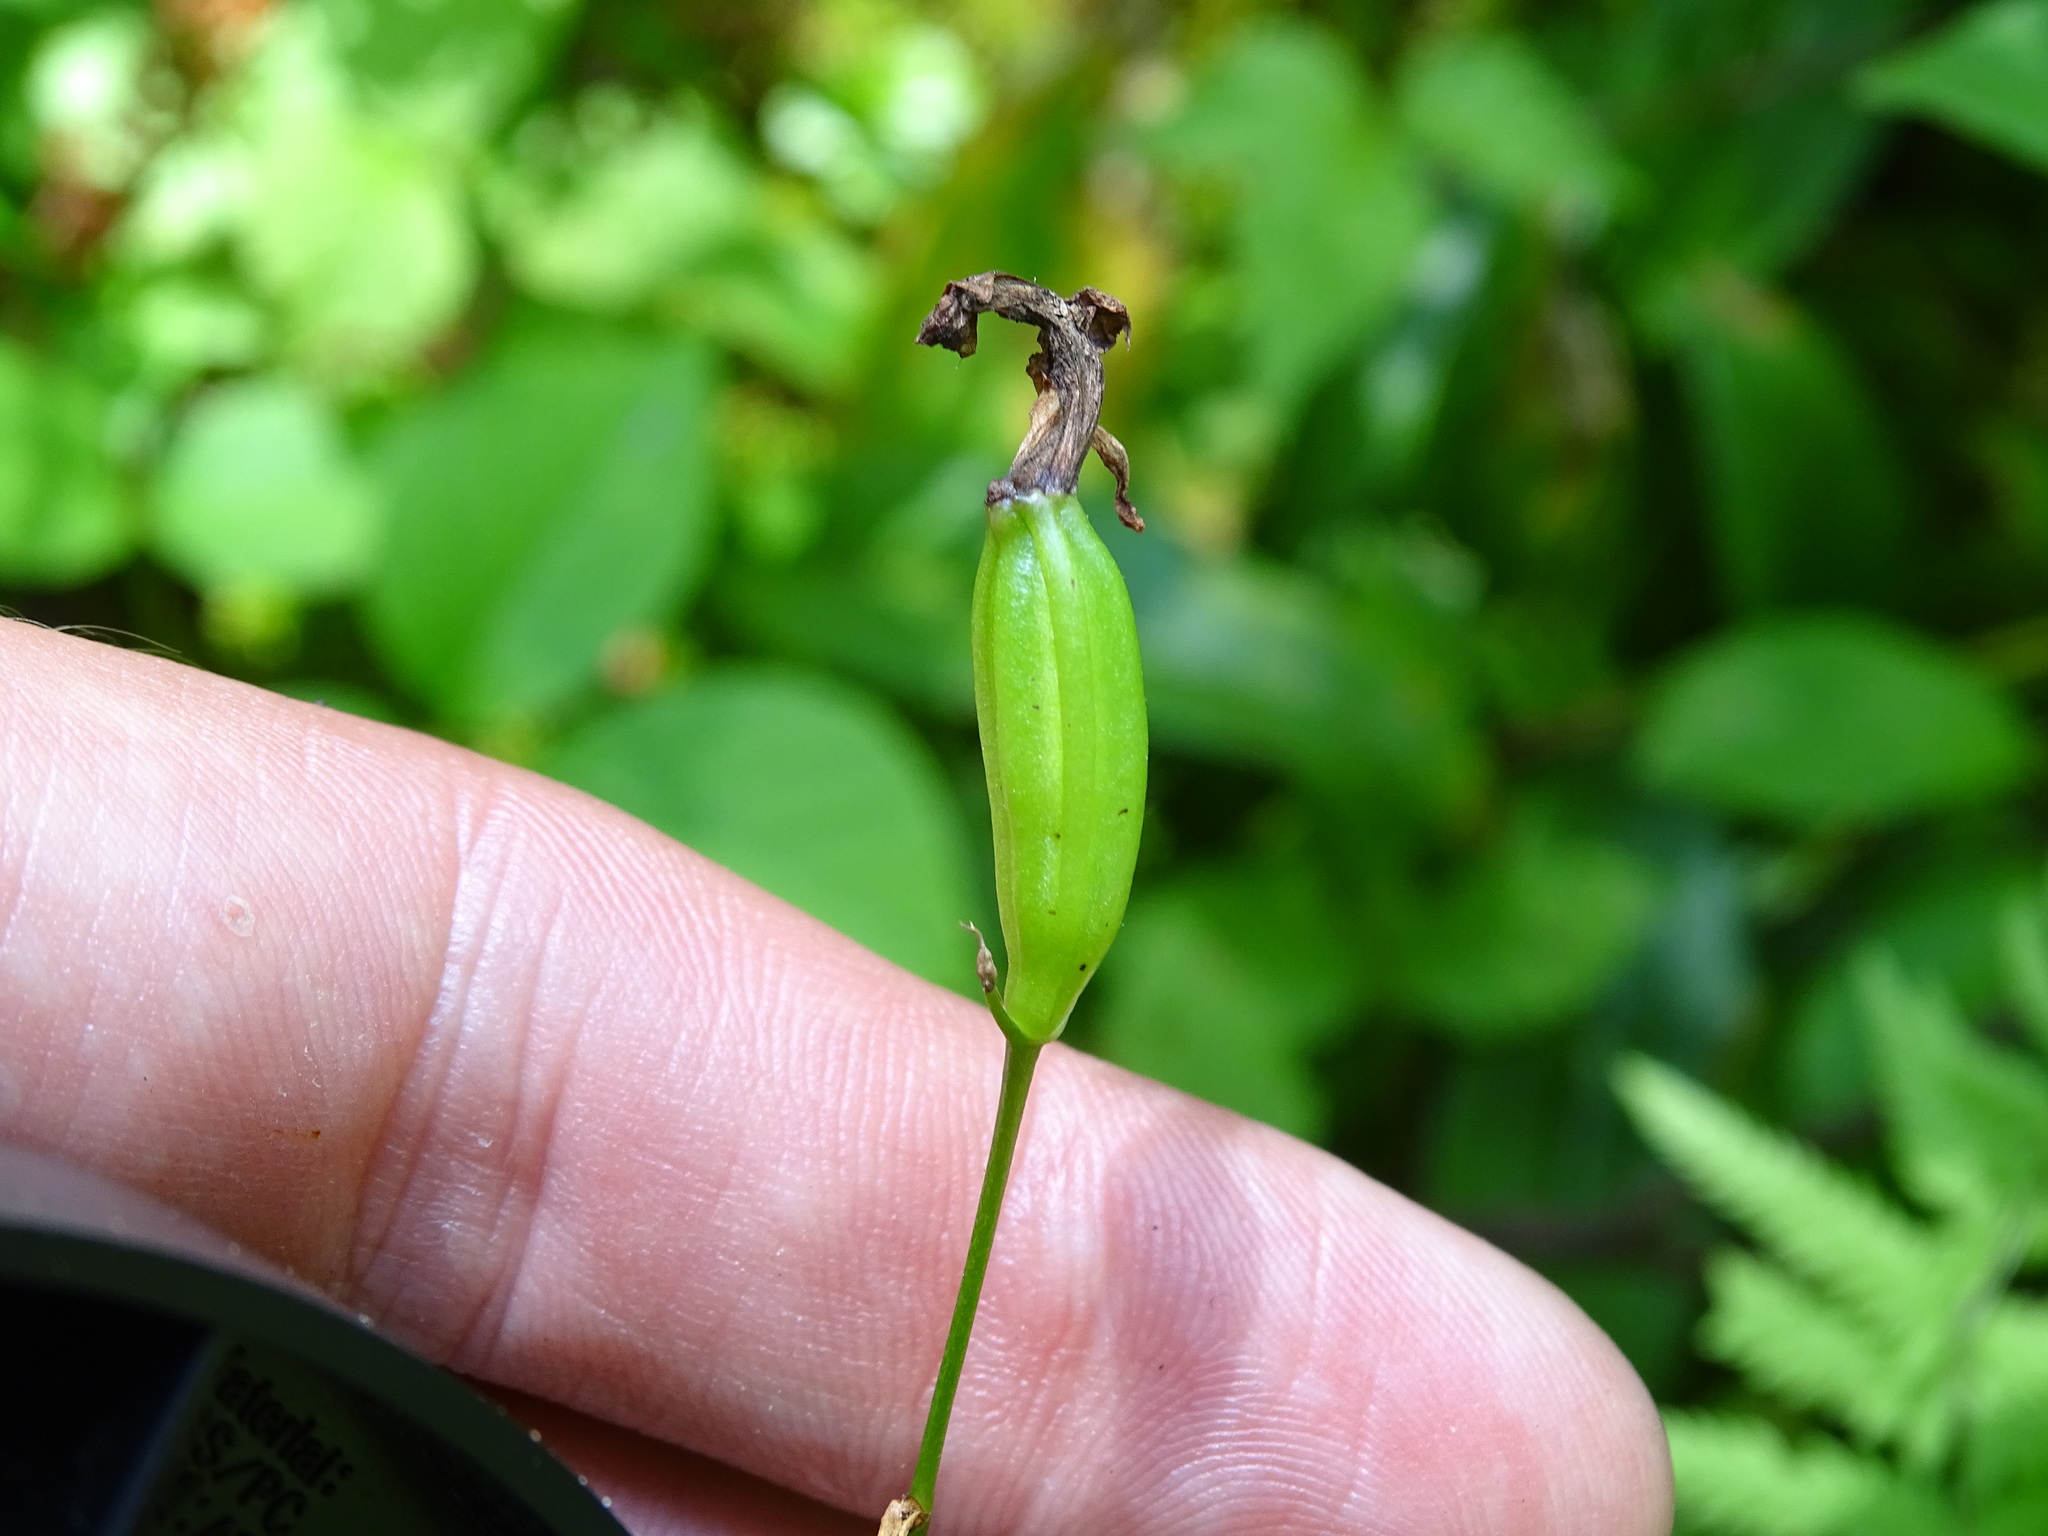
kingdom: Plantae
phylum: Tracheophyta
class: Liliopsida
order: Asparagales
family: Orchidaceae
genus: Calopogon
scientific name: Calopogon tuberosus
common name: Grass-pink
